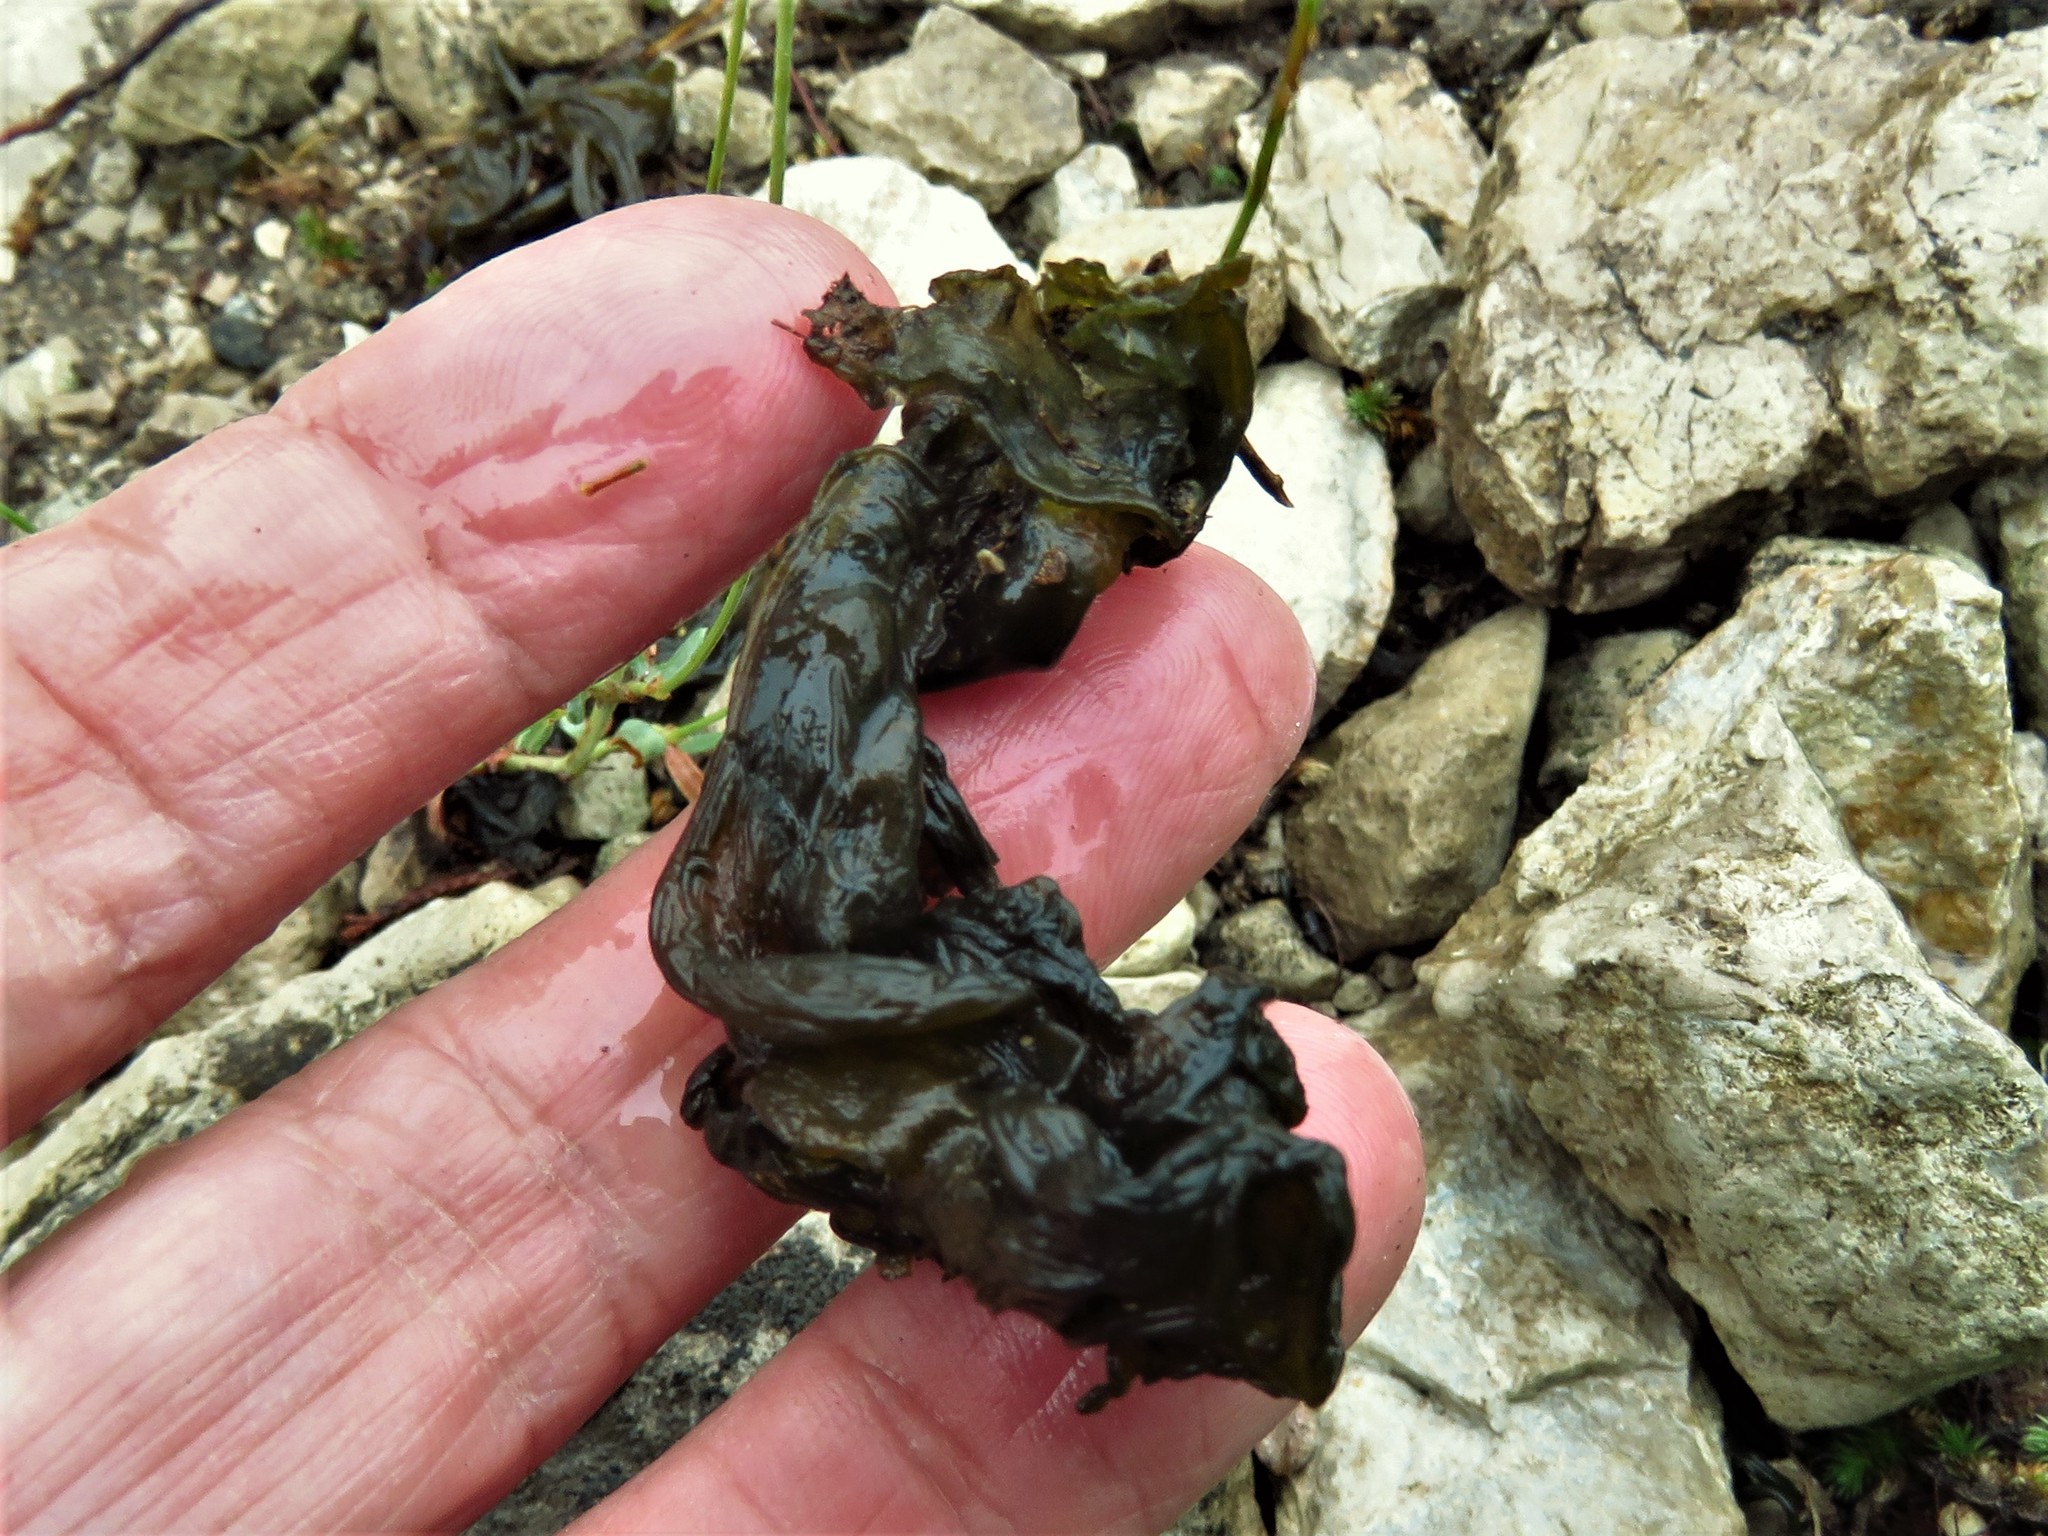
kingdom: Bacteria
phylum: Cyanobacteria
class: Cyanobacteriia
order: Cyanobacteriales
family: Nostocaceae
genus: Nostoc
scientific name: Nostoc commune
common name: Star jelly
